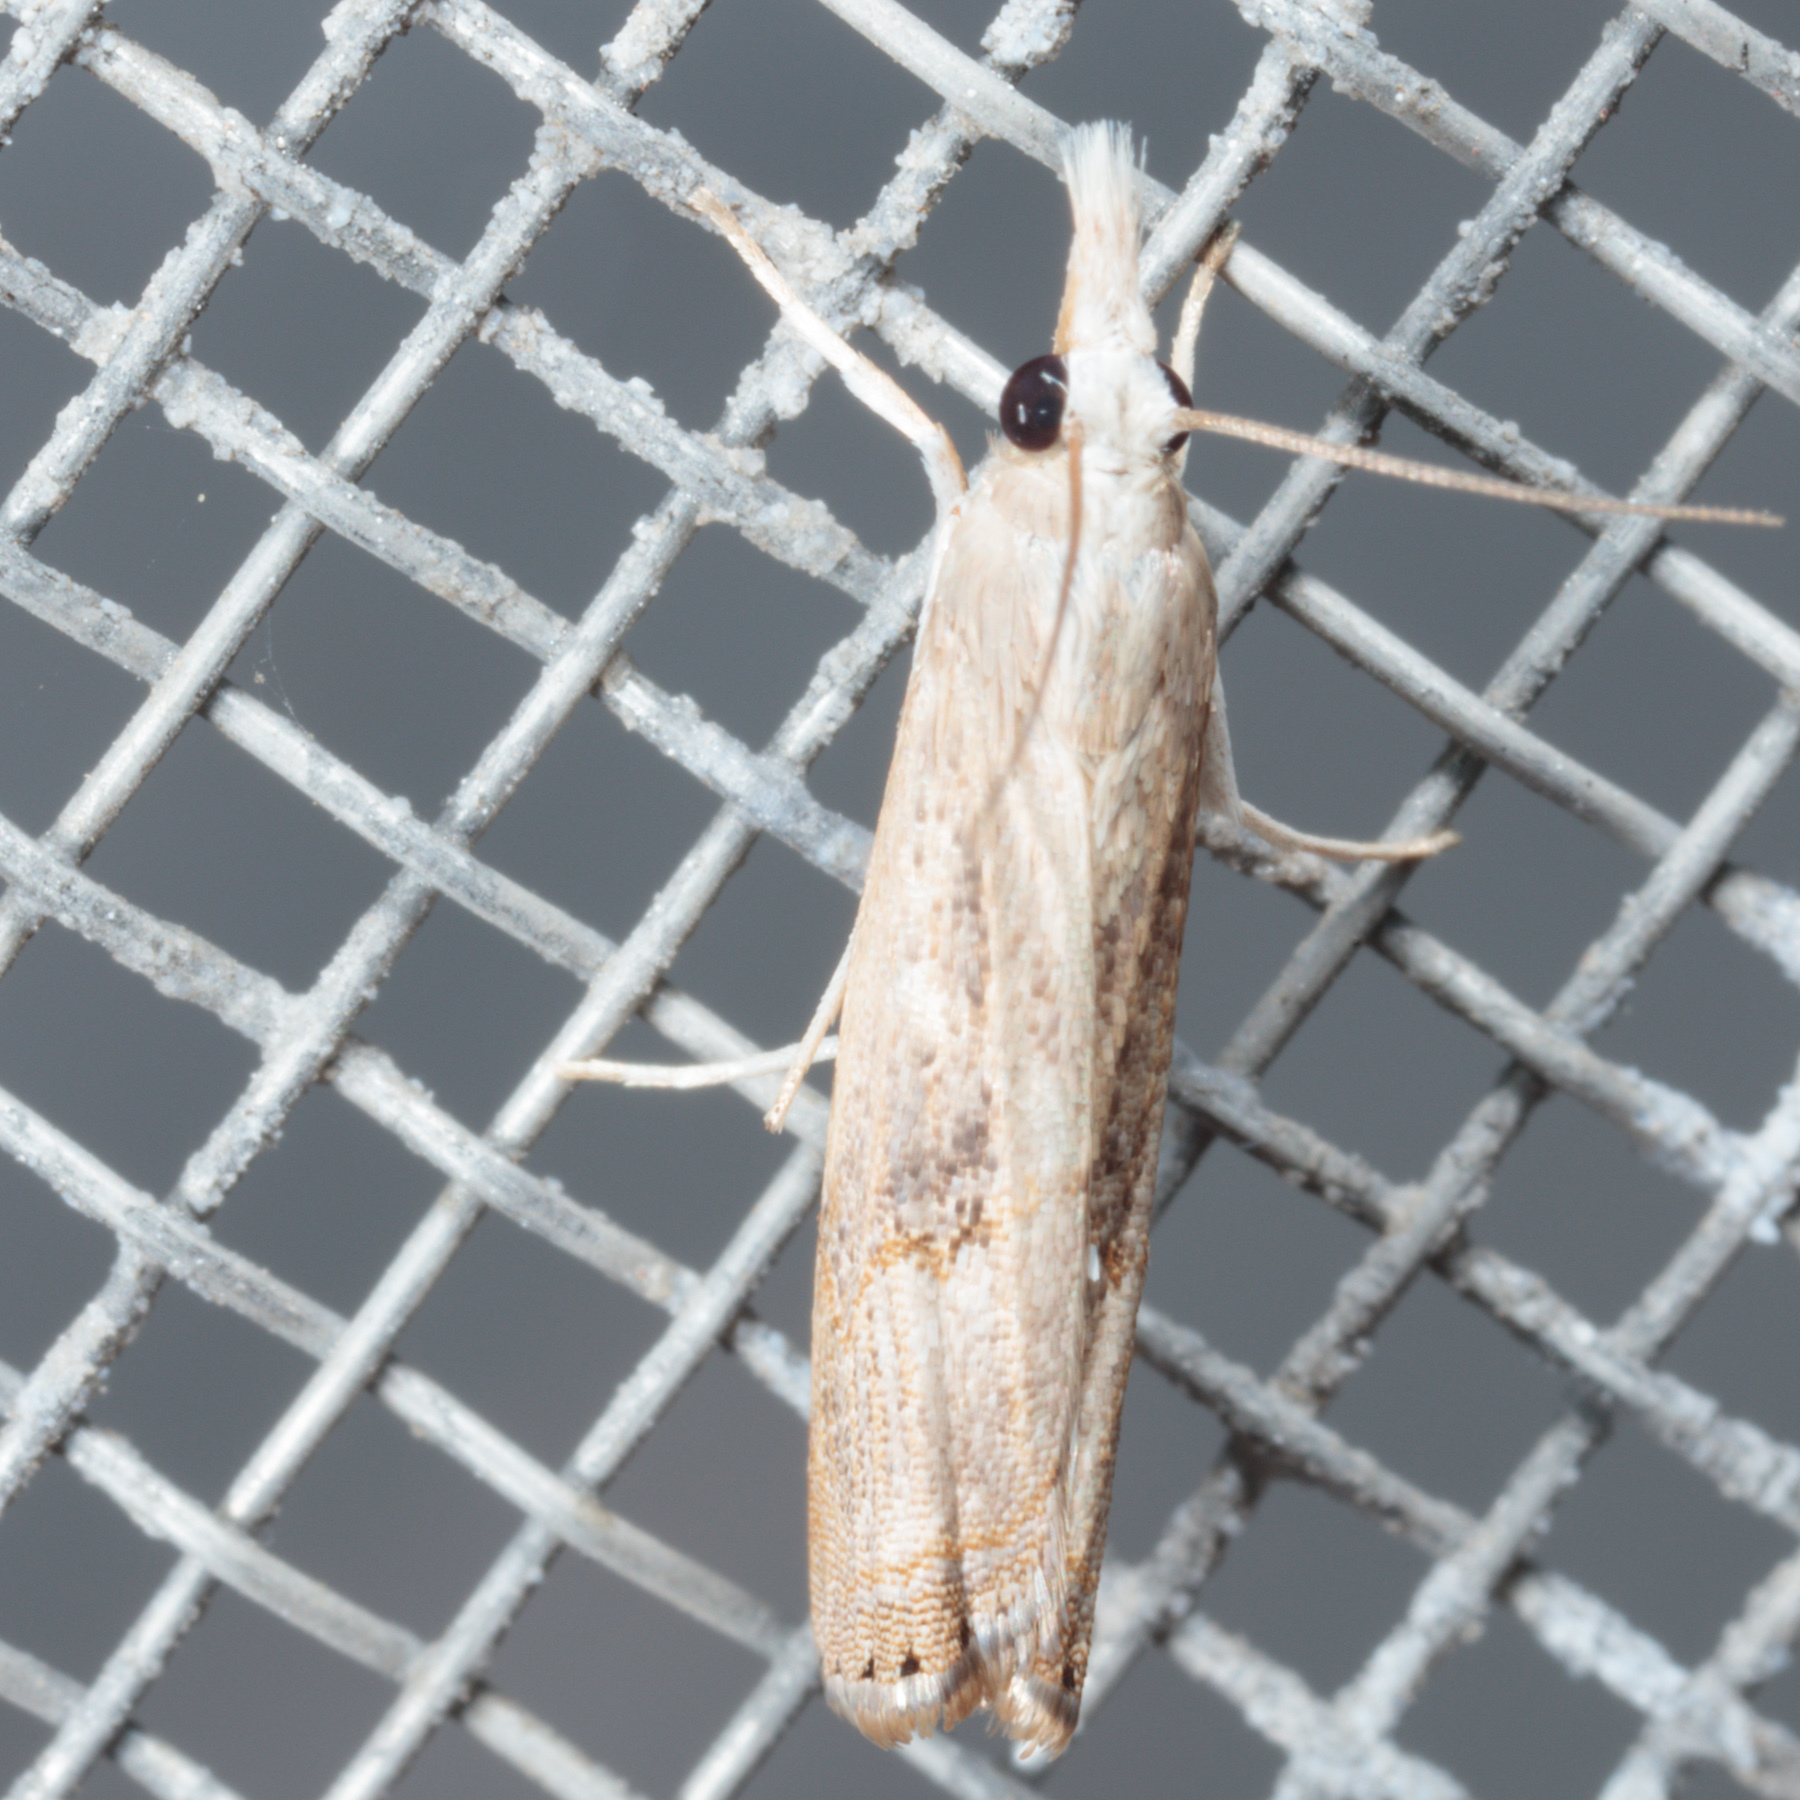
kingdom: Animalia
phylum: Arthropoda
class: Insecta
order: Lepidoptera
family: Crambidae
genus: Parapediasia
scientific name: Parapediasia teterellus
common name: Bluegrass webworm moth
